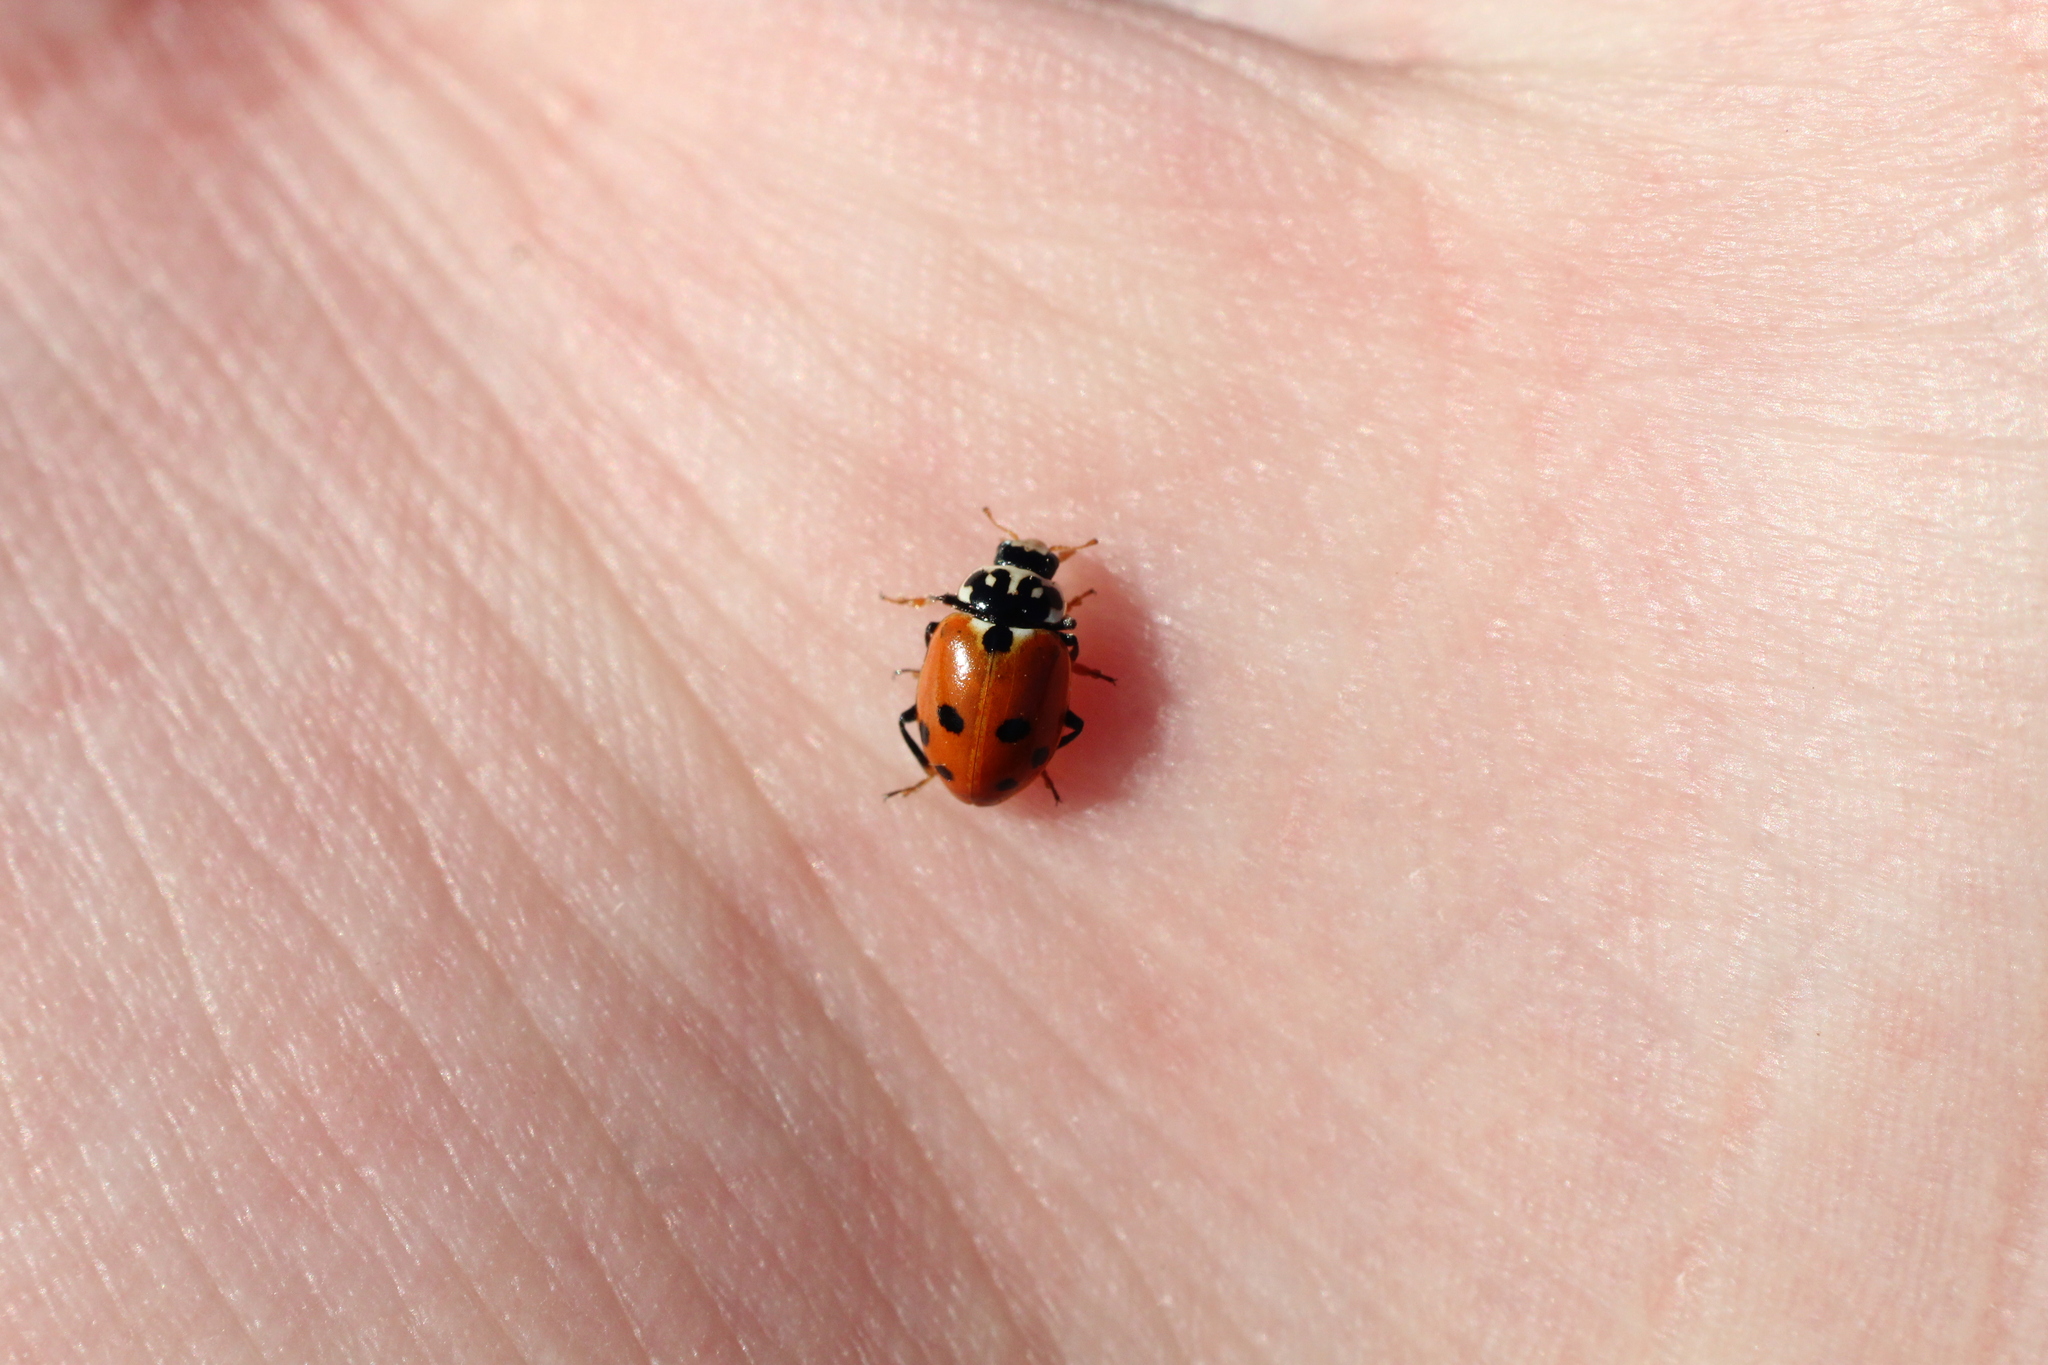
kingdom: Animalia
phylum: Arthropoda
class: Insecta
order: Coleoptera
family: Coccinellidae
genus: Hippodamia
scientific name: Hippodamia variegata
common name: Ladybird beetle
